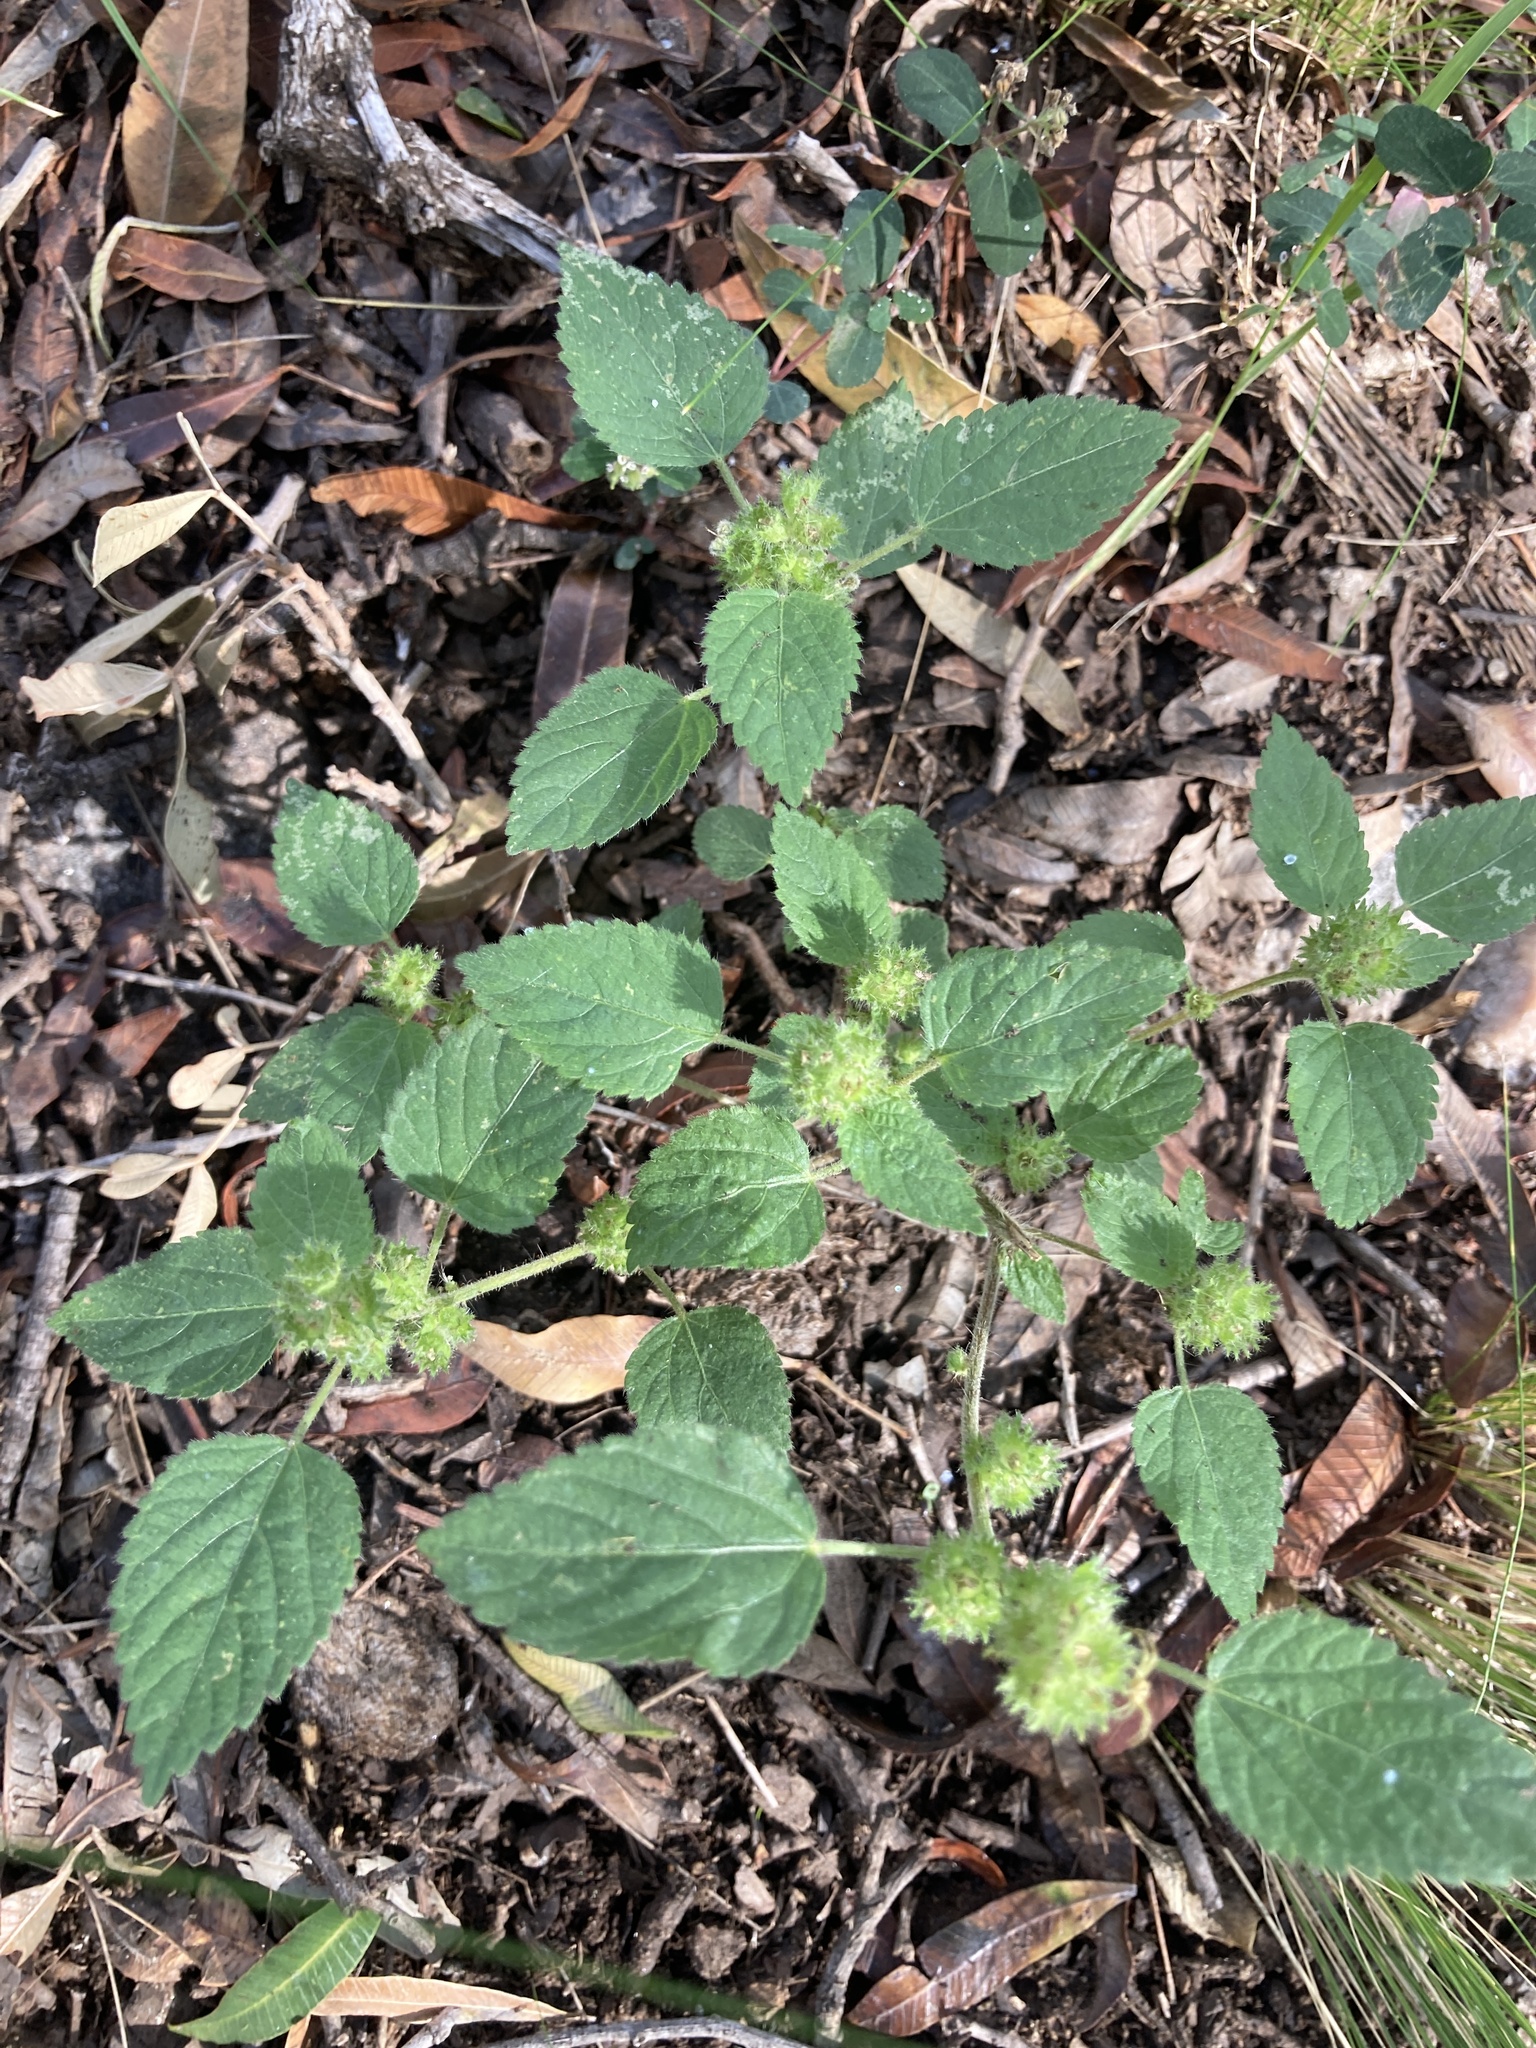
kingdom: Plantae
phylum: Tracheophyta
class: Magnoliopsida
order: Malpighiales
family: Euphorbiaceae
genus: Acalypha
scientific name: Acalypha poiretii
